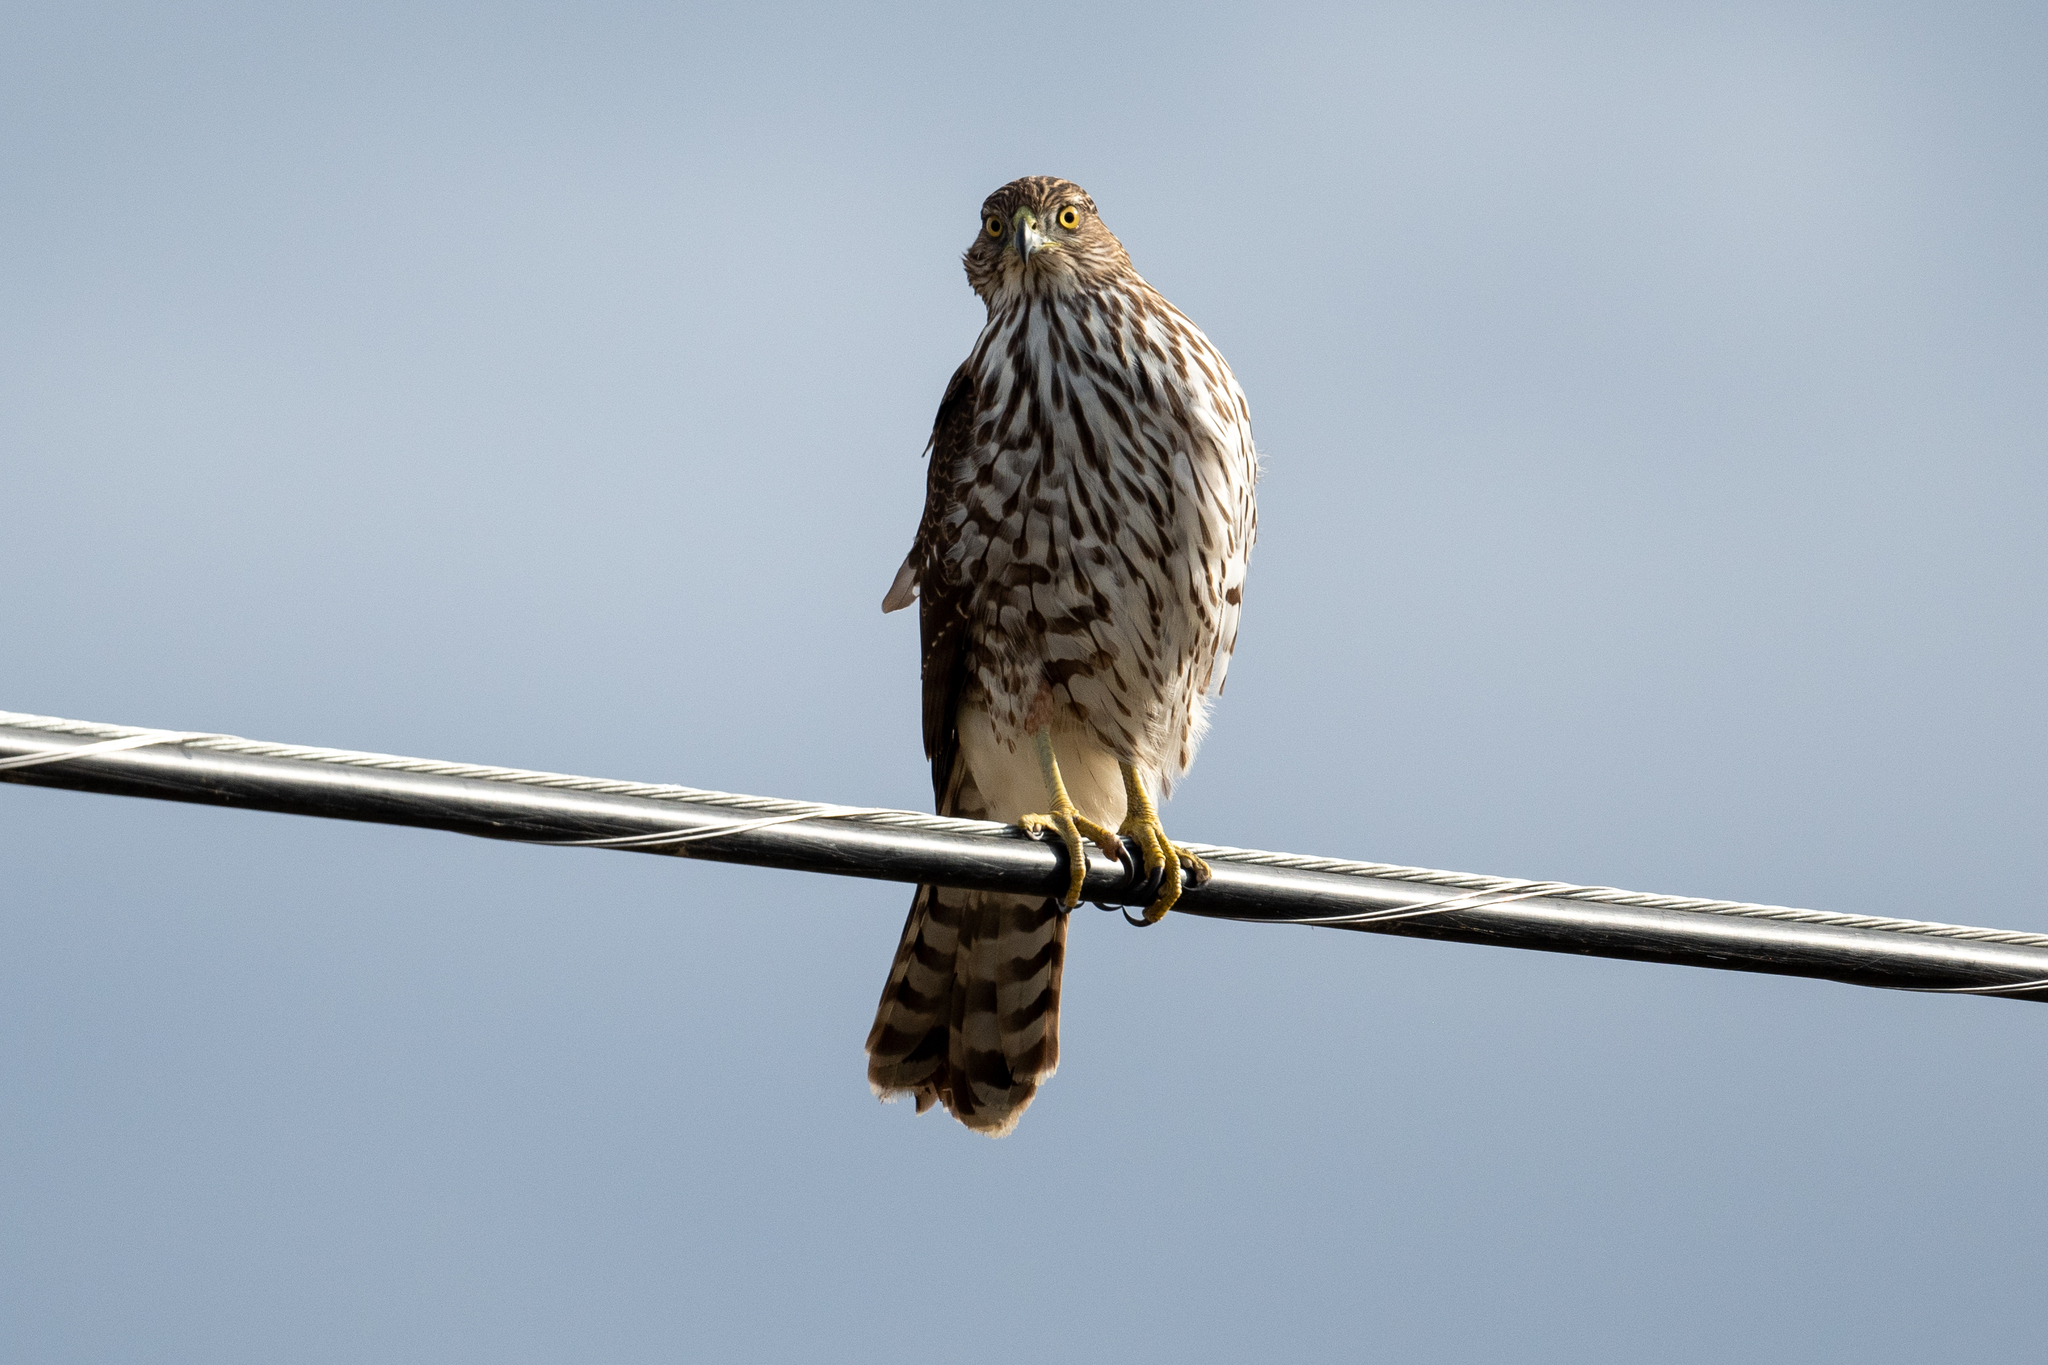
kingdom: Animalia
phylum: Chordata
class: Aves
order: Accipitriformes
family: Accipitridae
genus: Accipiter
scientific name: Accipiter cooperii
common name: Cooper's hawk
